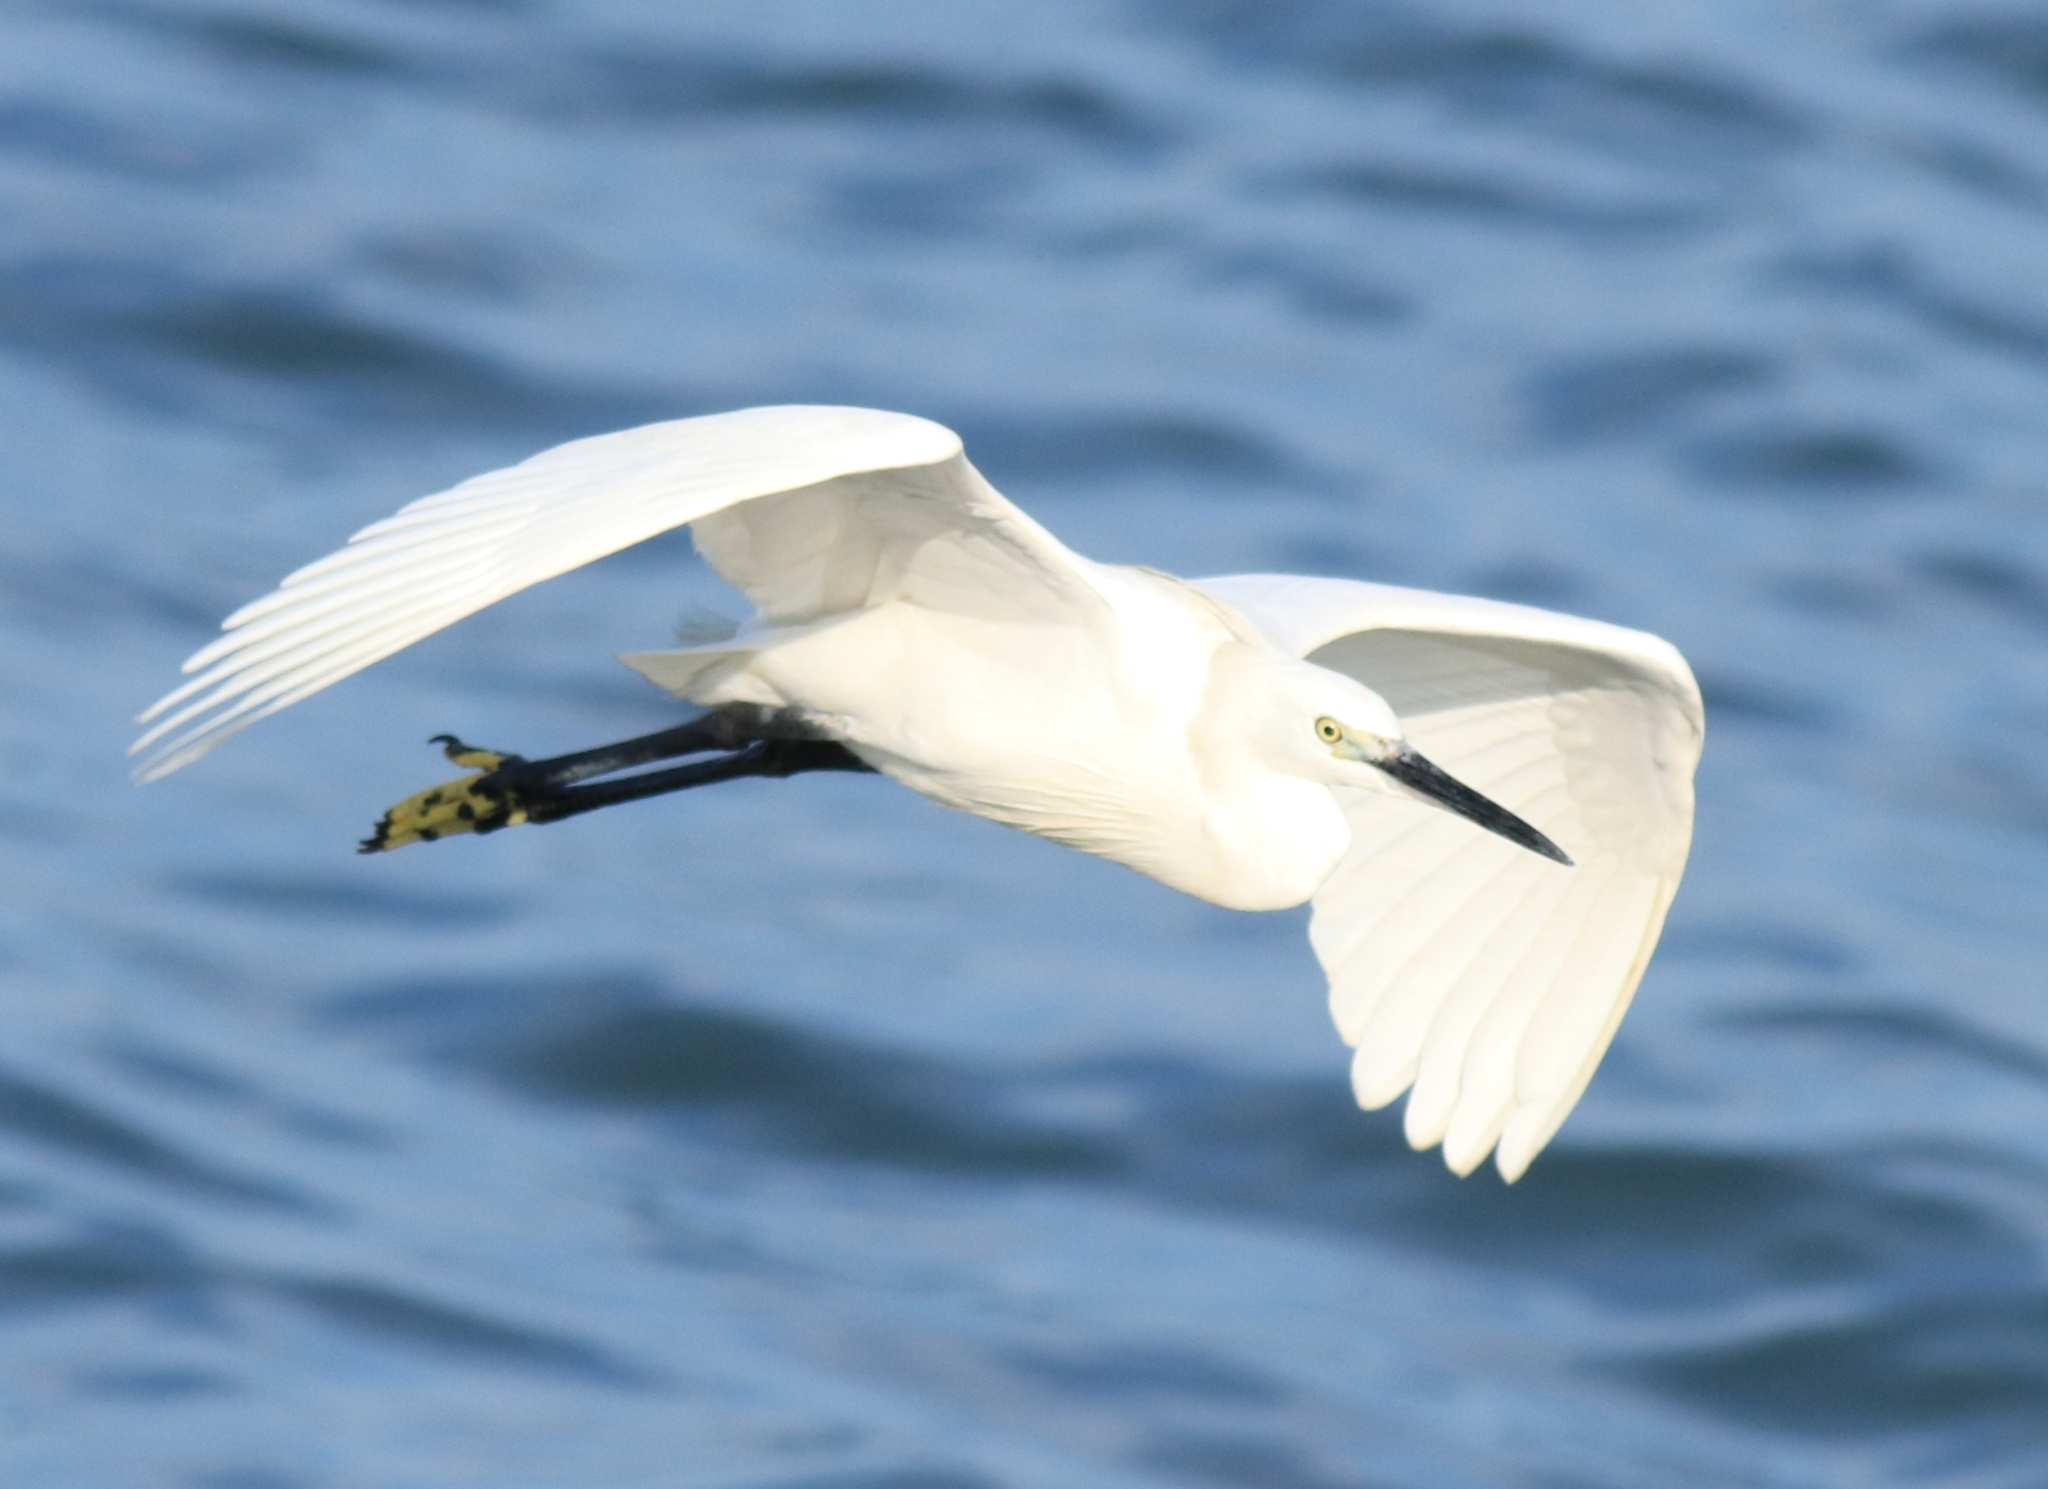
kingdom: Animalia
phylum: Chordata
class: Aves
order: Pelecaniformes
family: Ardeidae
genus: Egretta
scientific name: Egretta garzetta
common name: Little egret
